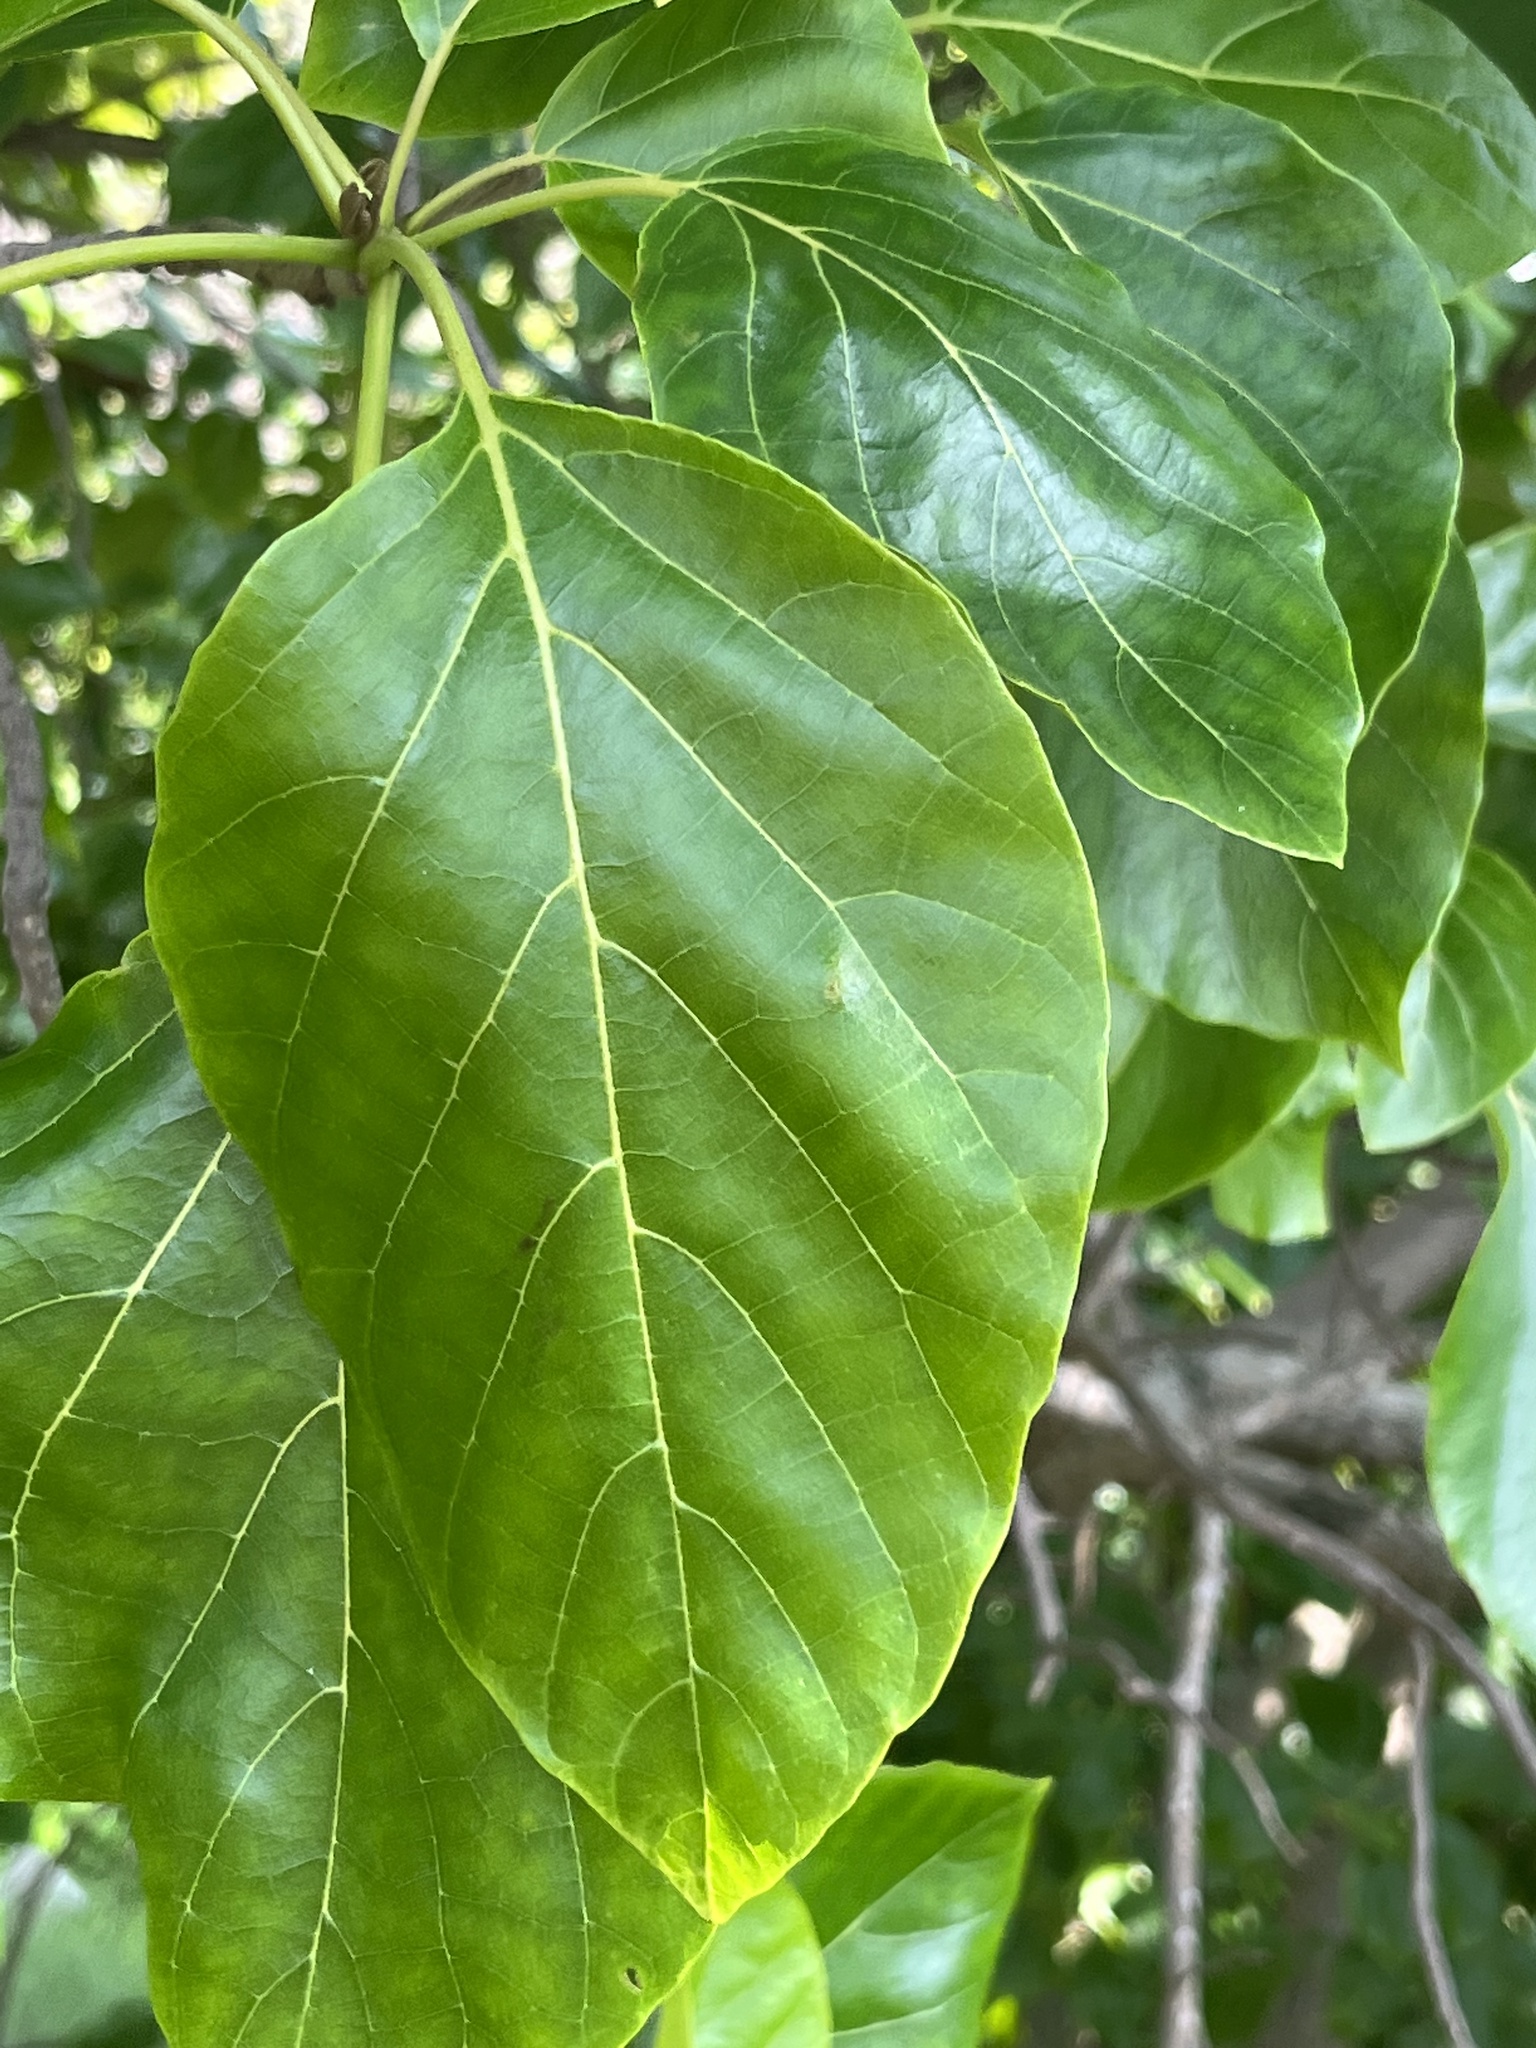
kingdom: Plantae
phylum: Tracheophyta
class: Magnoliopsida
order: Boraginales
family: Cordiaceae
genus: Cordia
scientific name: Cordia subcordata
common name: Mareer
